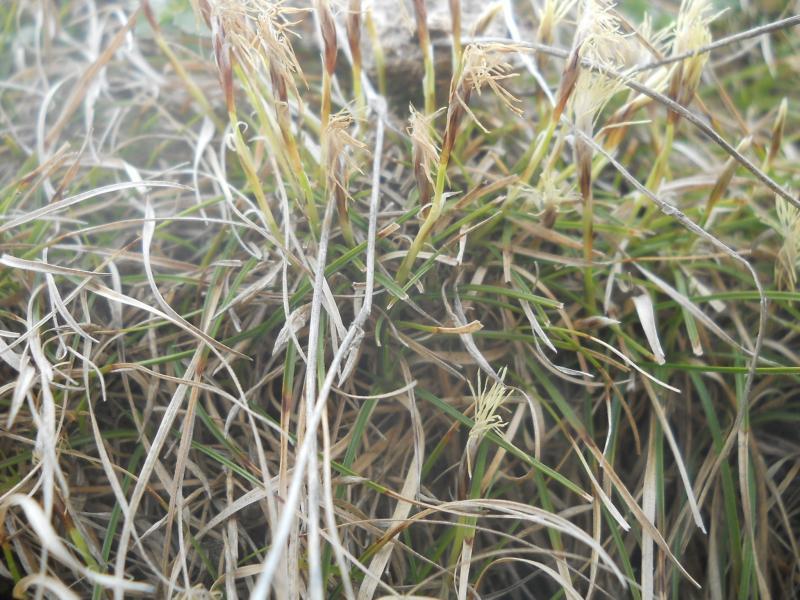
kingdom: Plantae
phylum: Tracheophyta
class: Liliopsida
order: Poales
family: Cyperaceae
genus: Carex
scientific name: Carex humilis
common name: Dwarf sedge
